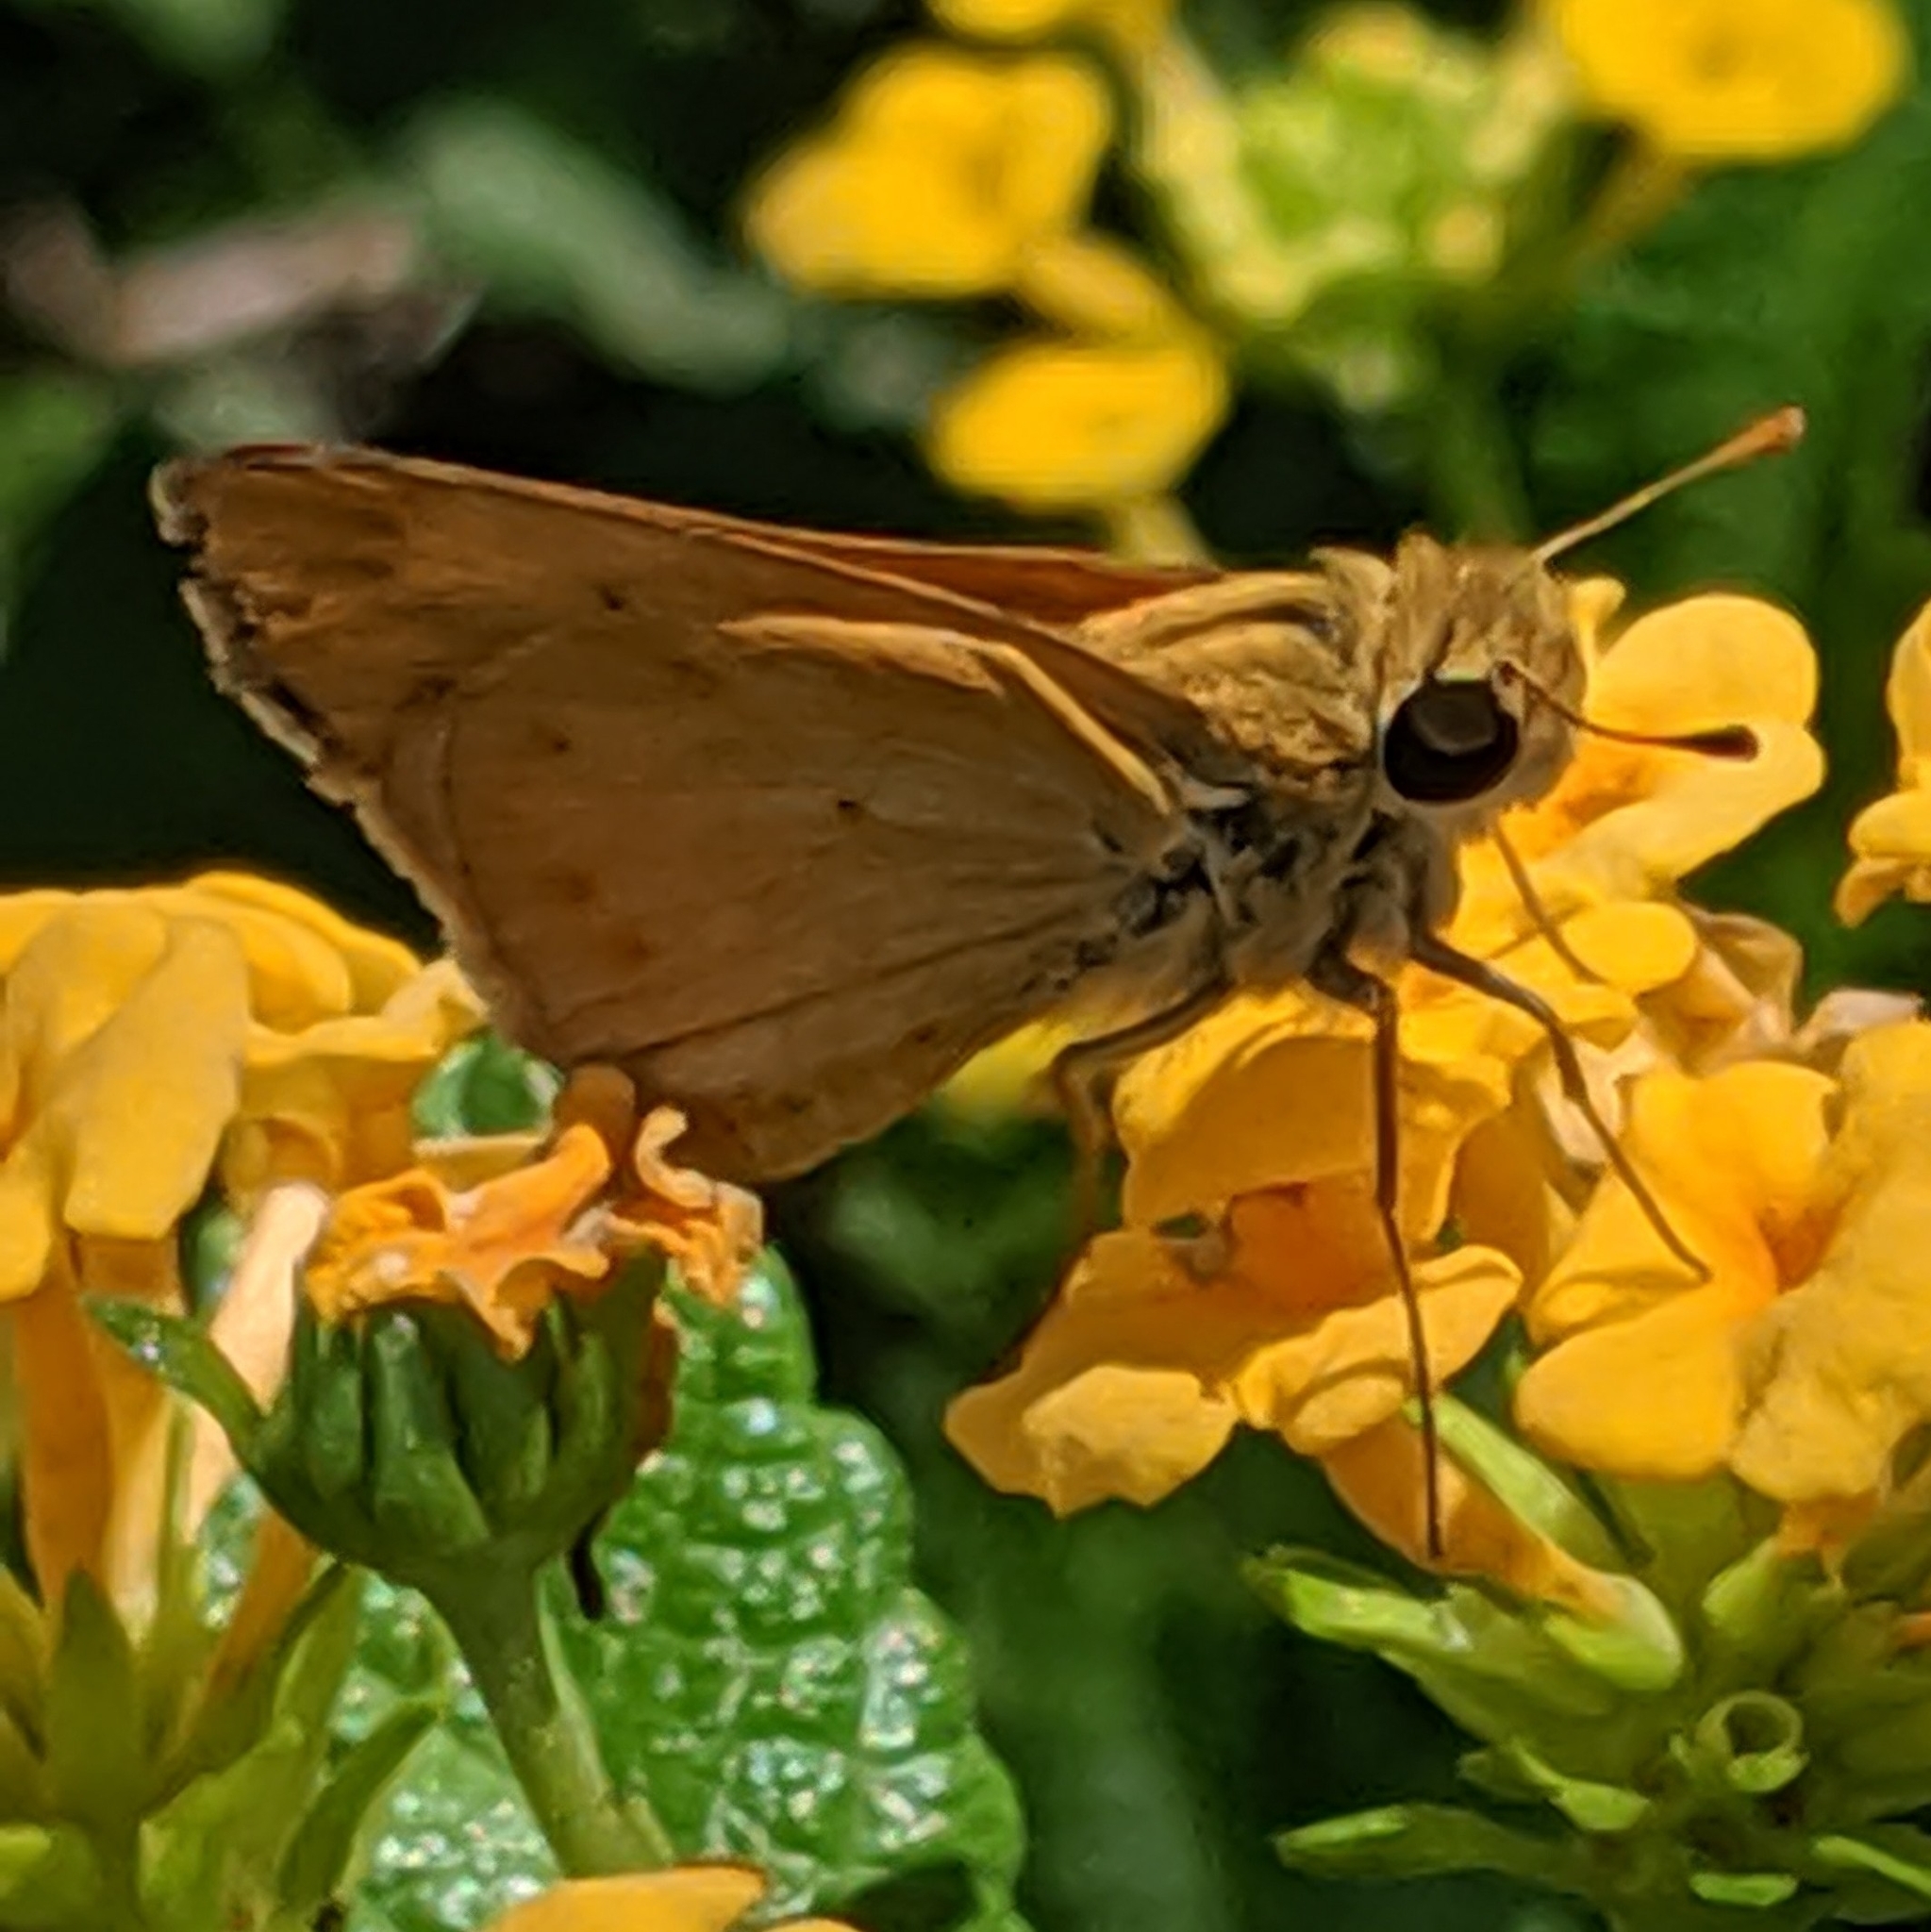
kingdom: Animalia
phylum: Arthropoda
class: Insecta
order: Lepidoptera
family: Hesperiidae
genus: Hylephila
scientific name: Hylephila phyleus
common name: Fiery skipper
